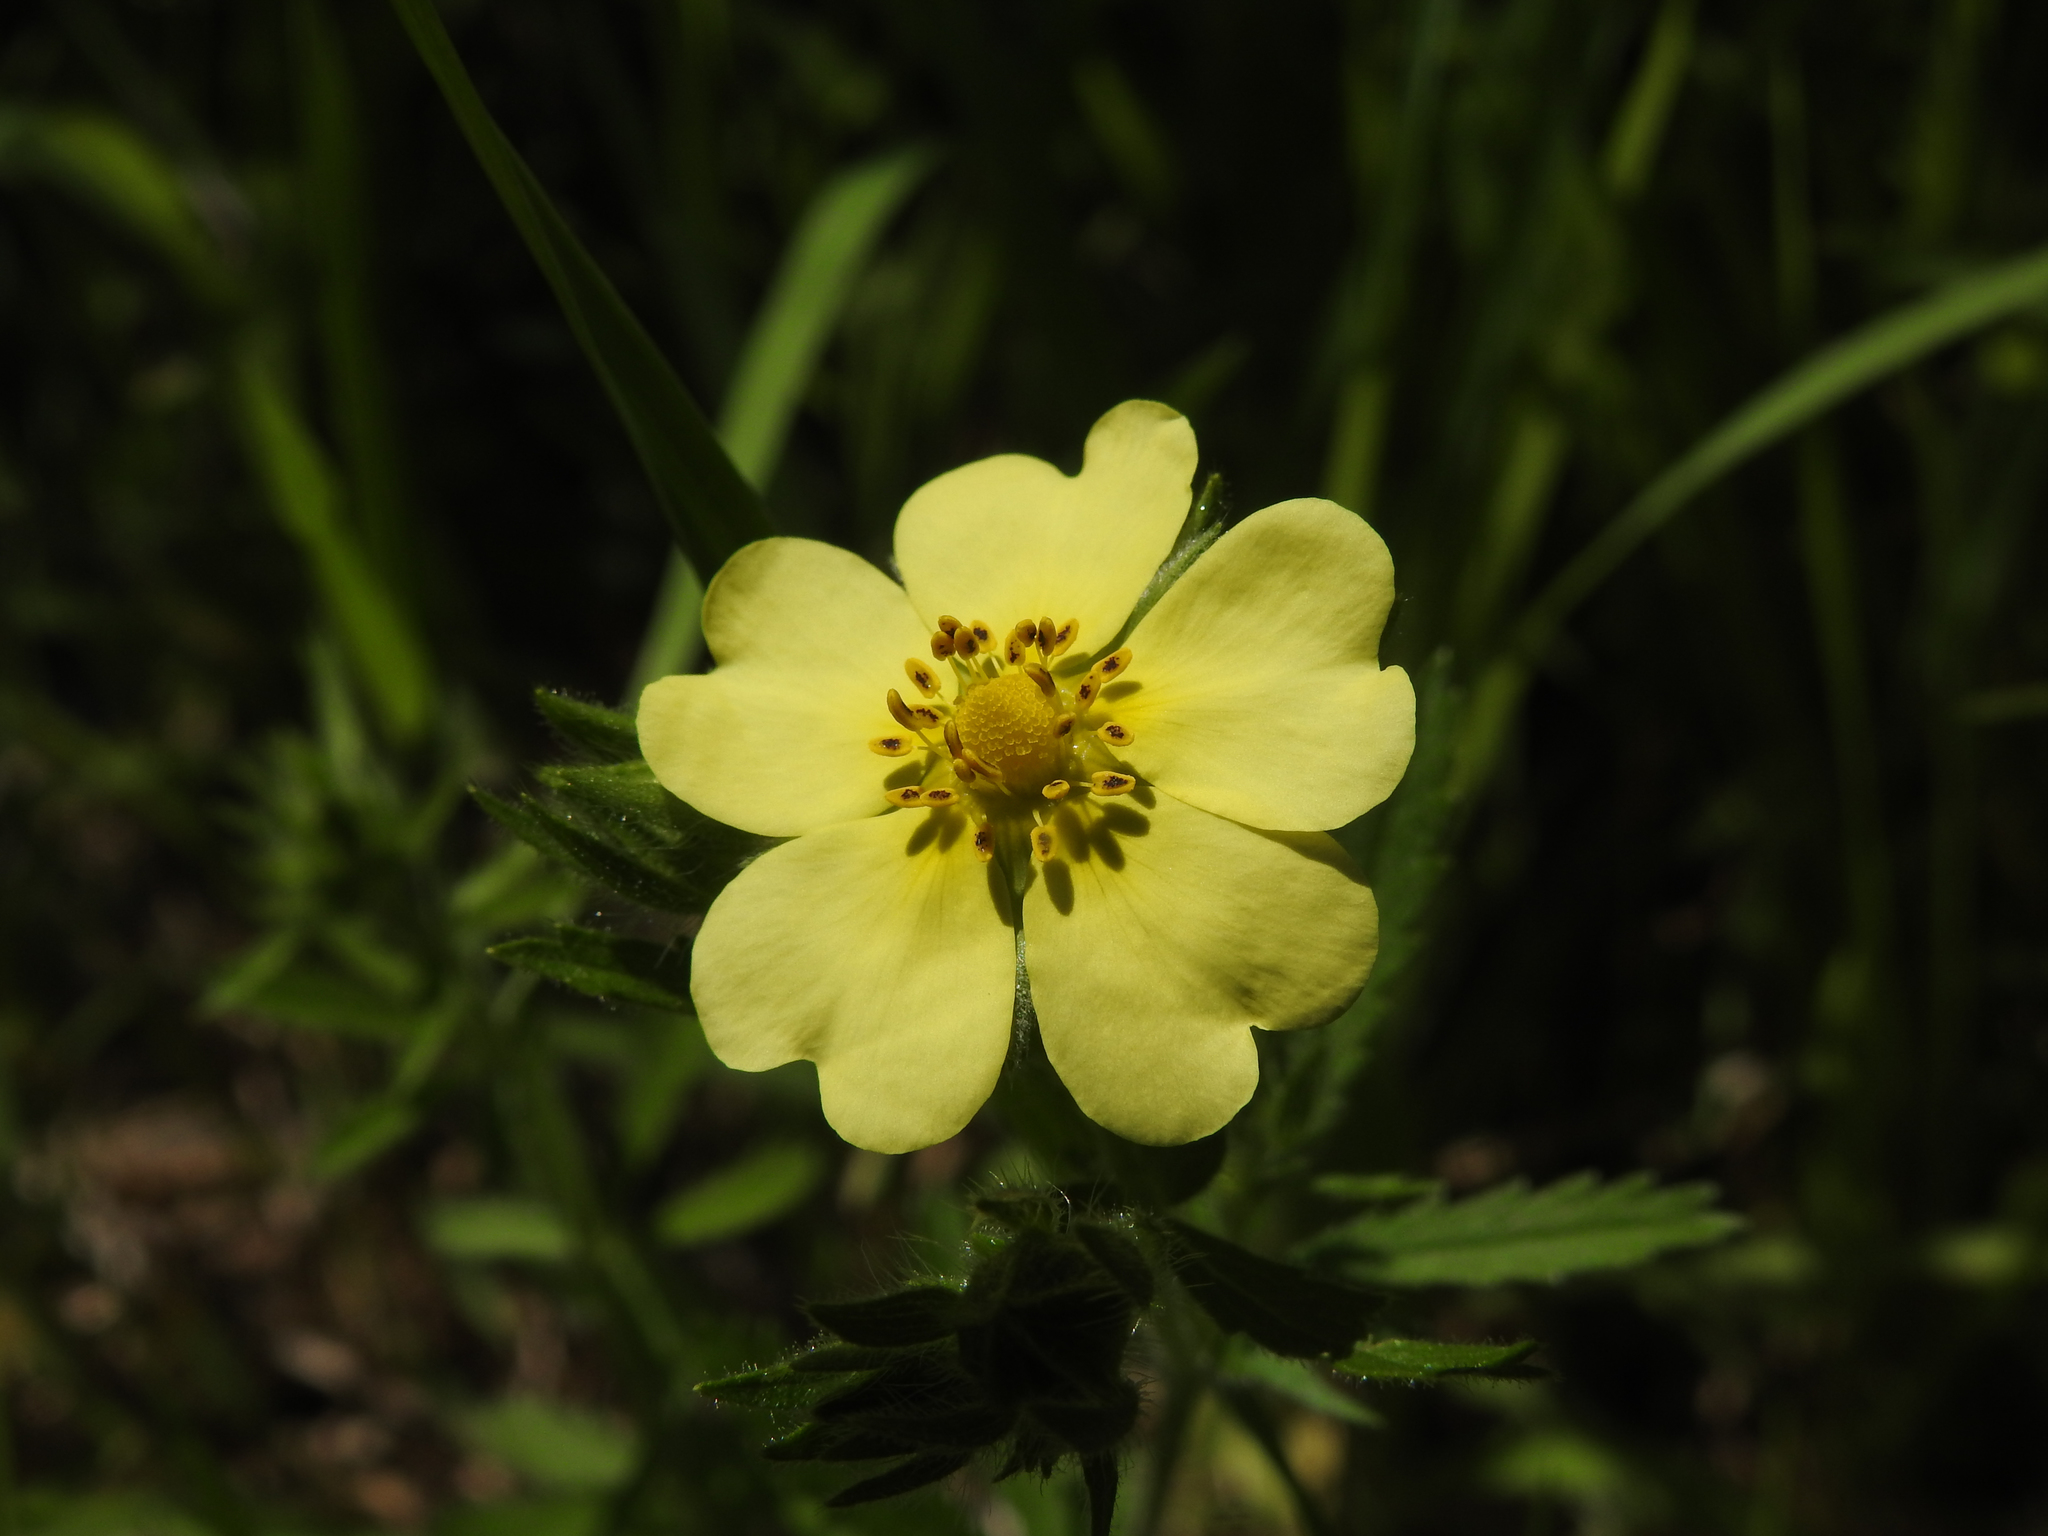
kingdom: Plantae
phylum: Tracheophyta
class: Magnoliopsida
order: Rosales
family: Rosaceae
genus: Potentilla
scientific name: Potentilla recta
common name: Sulphur cinquefoil
